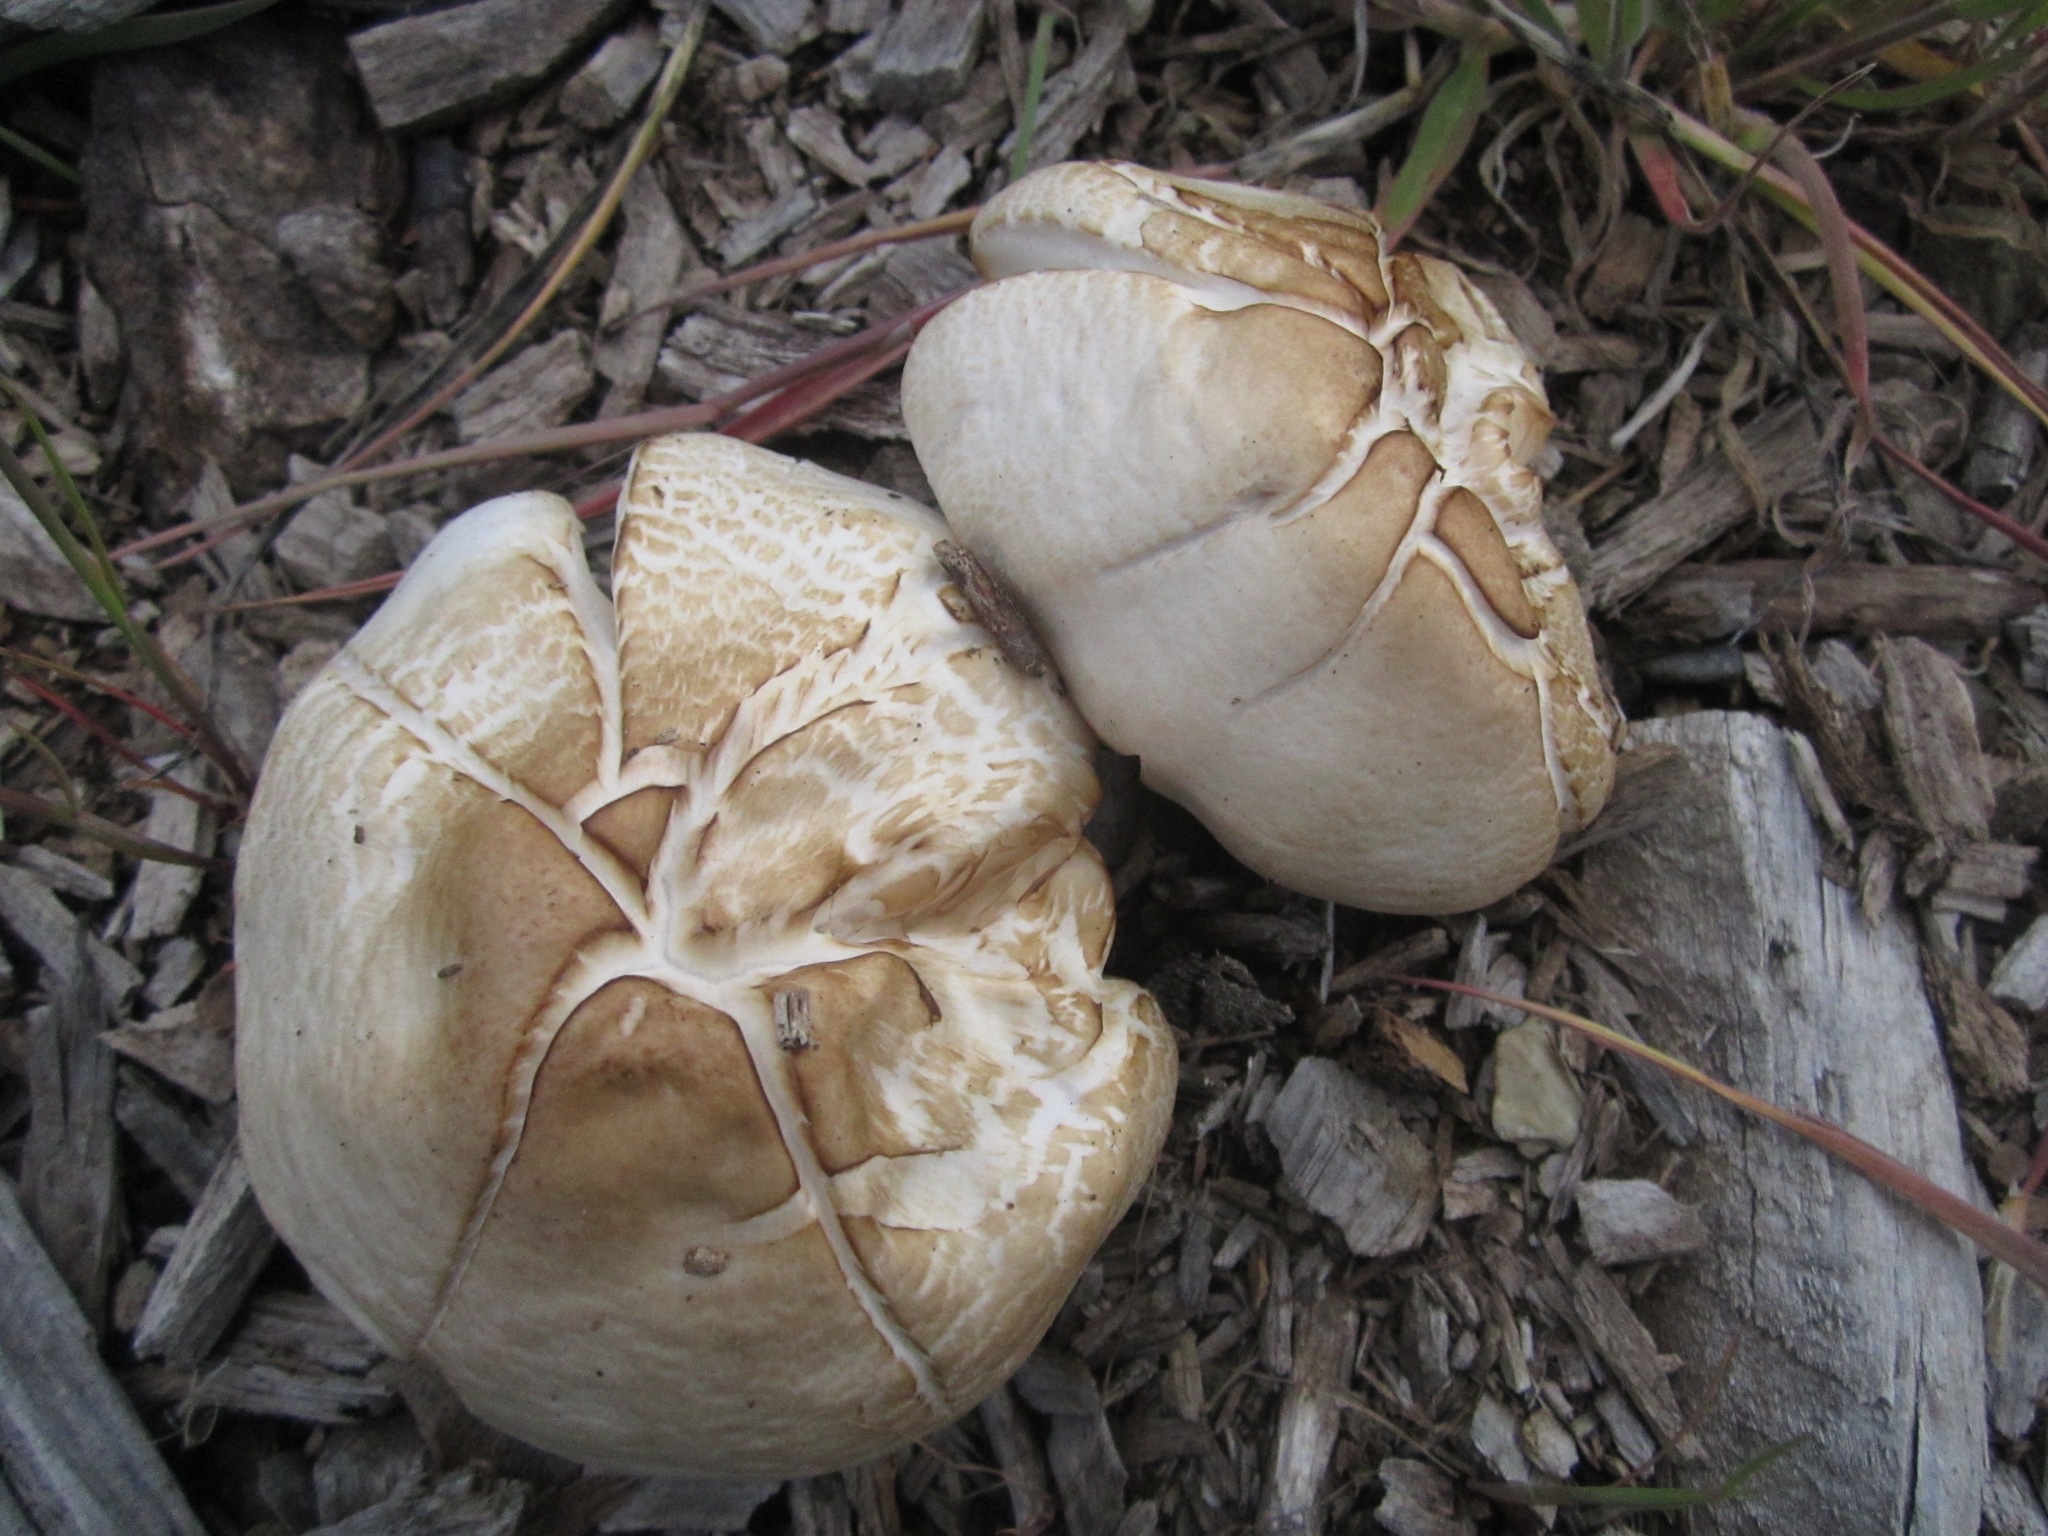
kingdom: Fungi
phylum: Basidiomycota
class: Agaricomycetes
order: Agaricales
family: Pluteaceae
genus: Pluteus
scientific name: Pluteus petasatus
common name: Scaly shield
